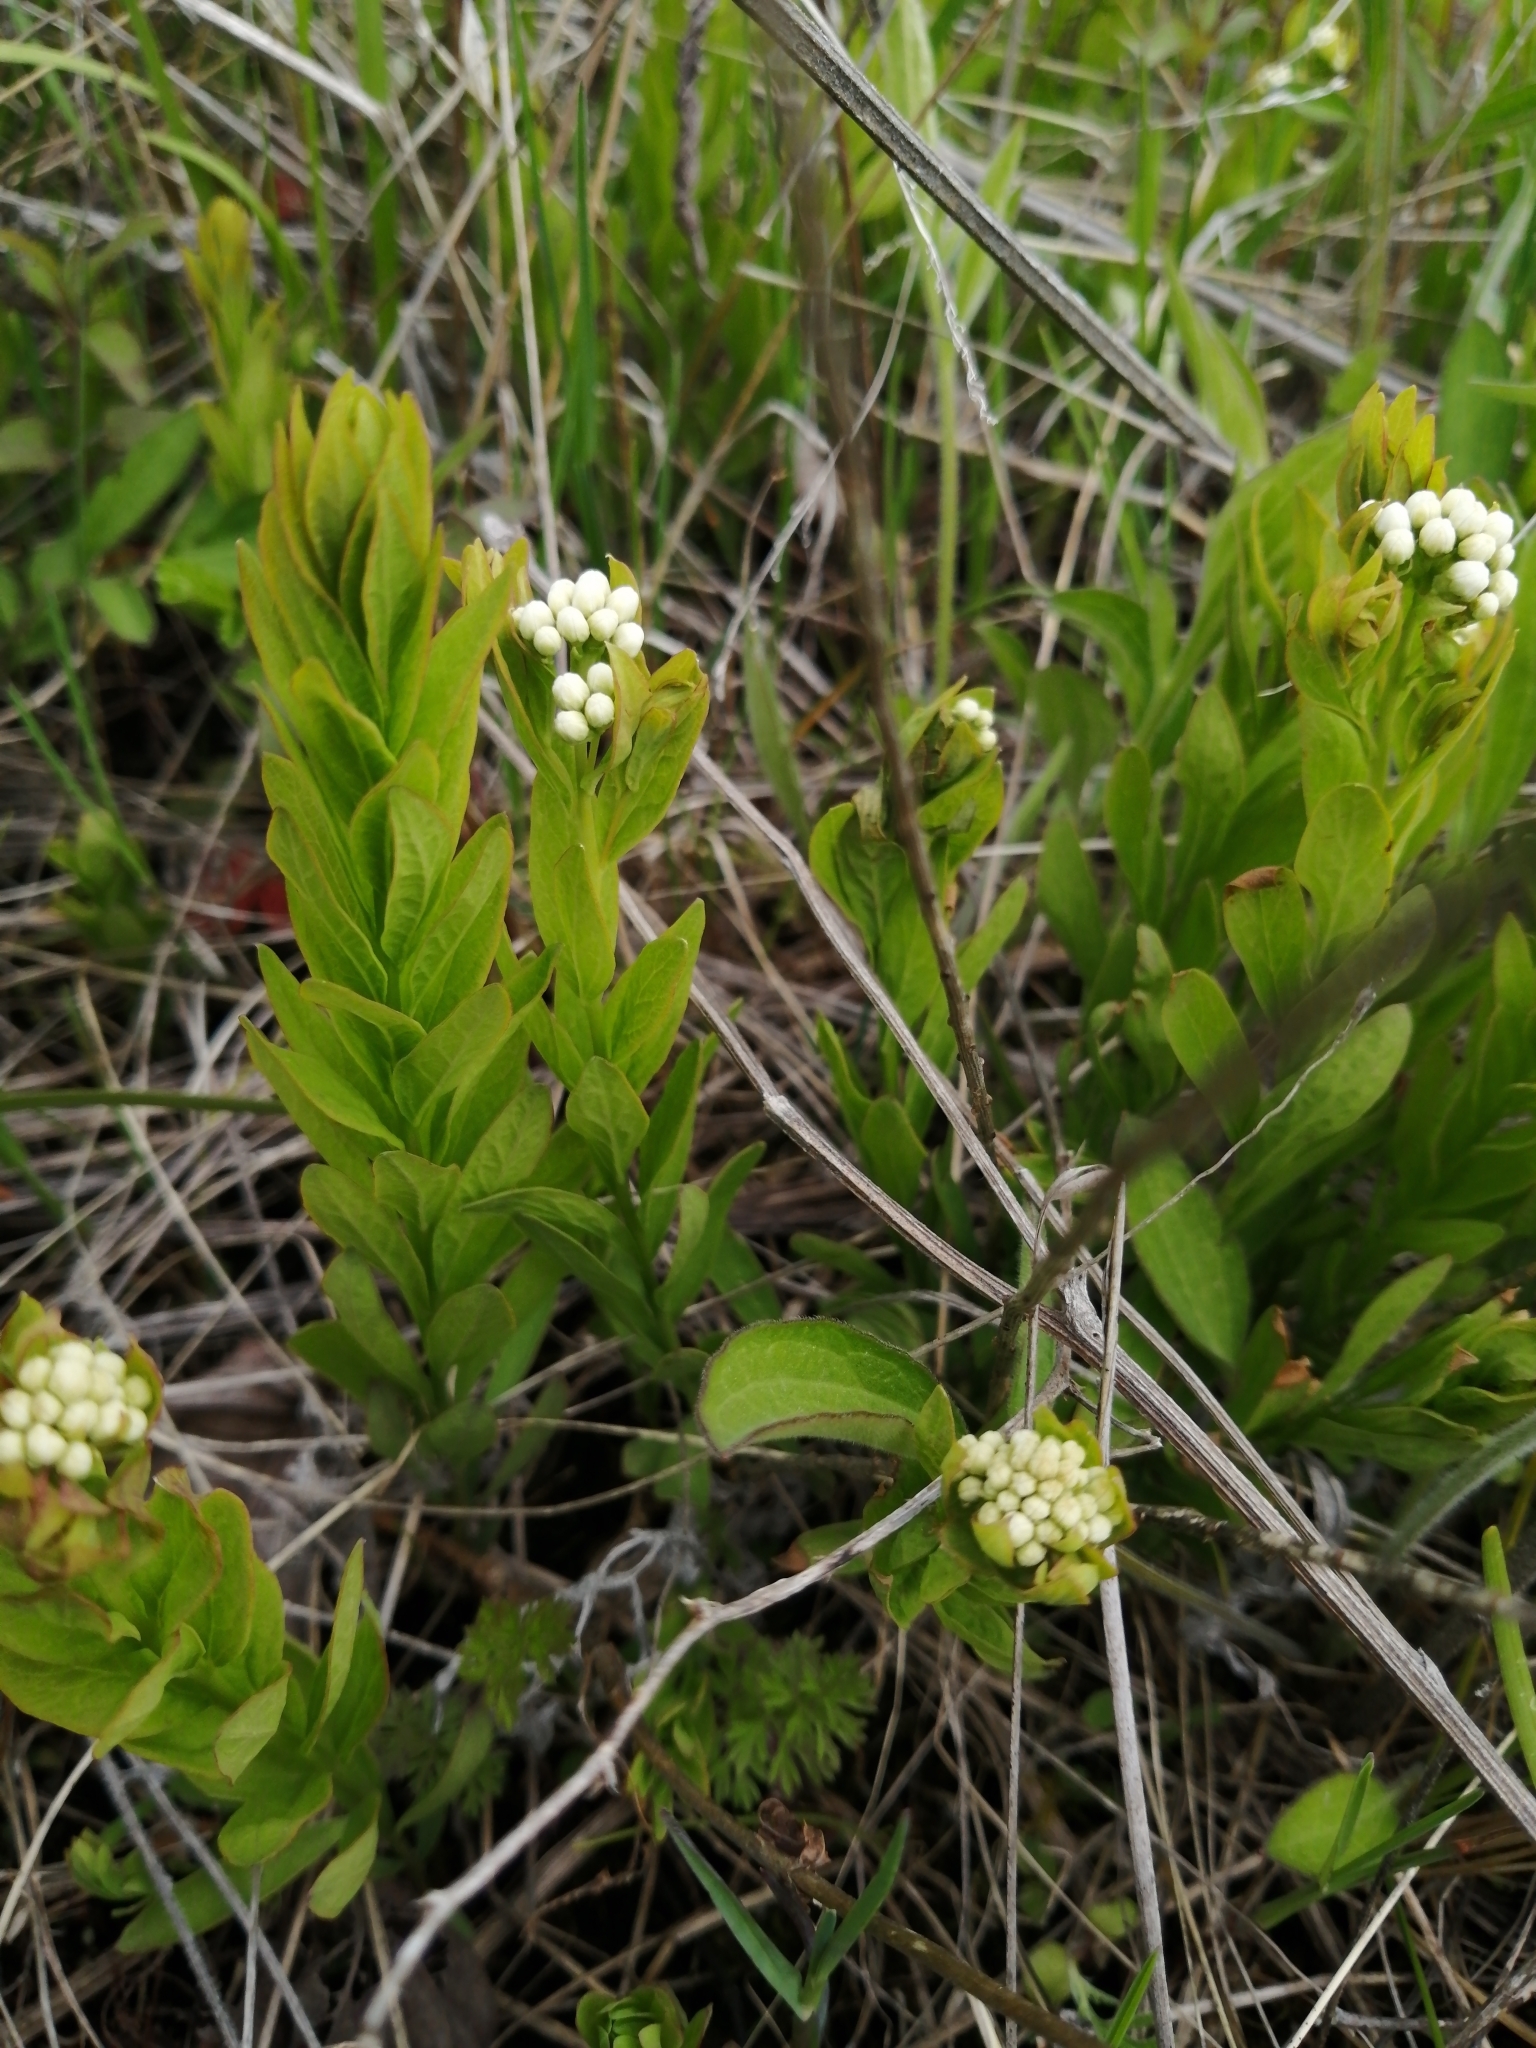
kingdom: Plantae
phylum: Tracheophyta
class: Magnoliopsida
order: Santalales
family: Comandraceae
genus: Comandra
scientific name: Comandra umbellata
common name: Bastard toadflax
